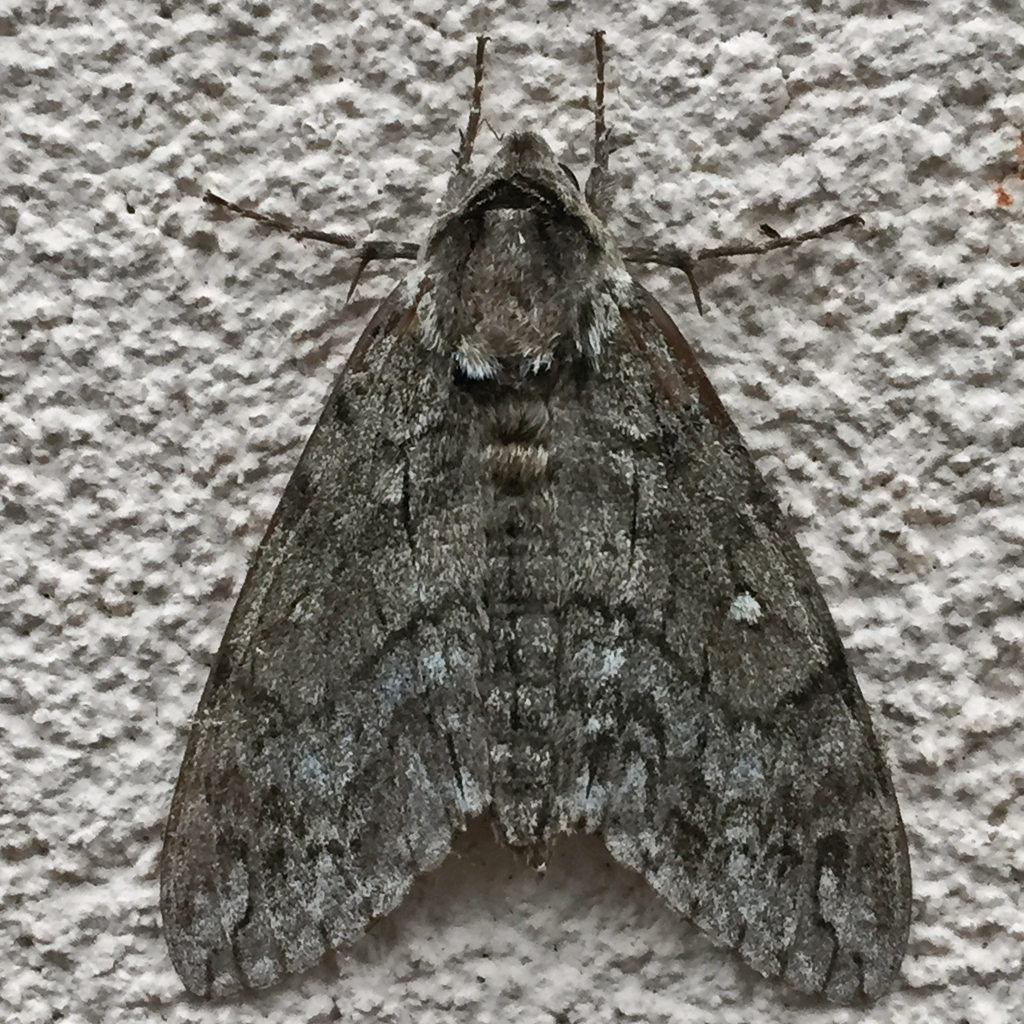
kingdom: Animalia
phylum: Arthropoda
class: Insecta
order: Lepidoptera
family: Sphingidae
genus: Ceratomia
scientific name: Ceratomia undulosa
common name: Waved sphinx
